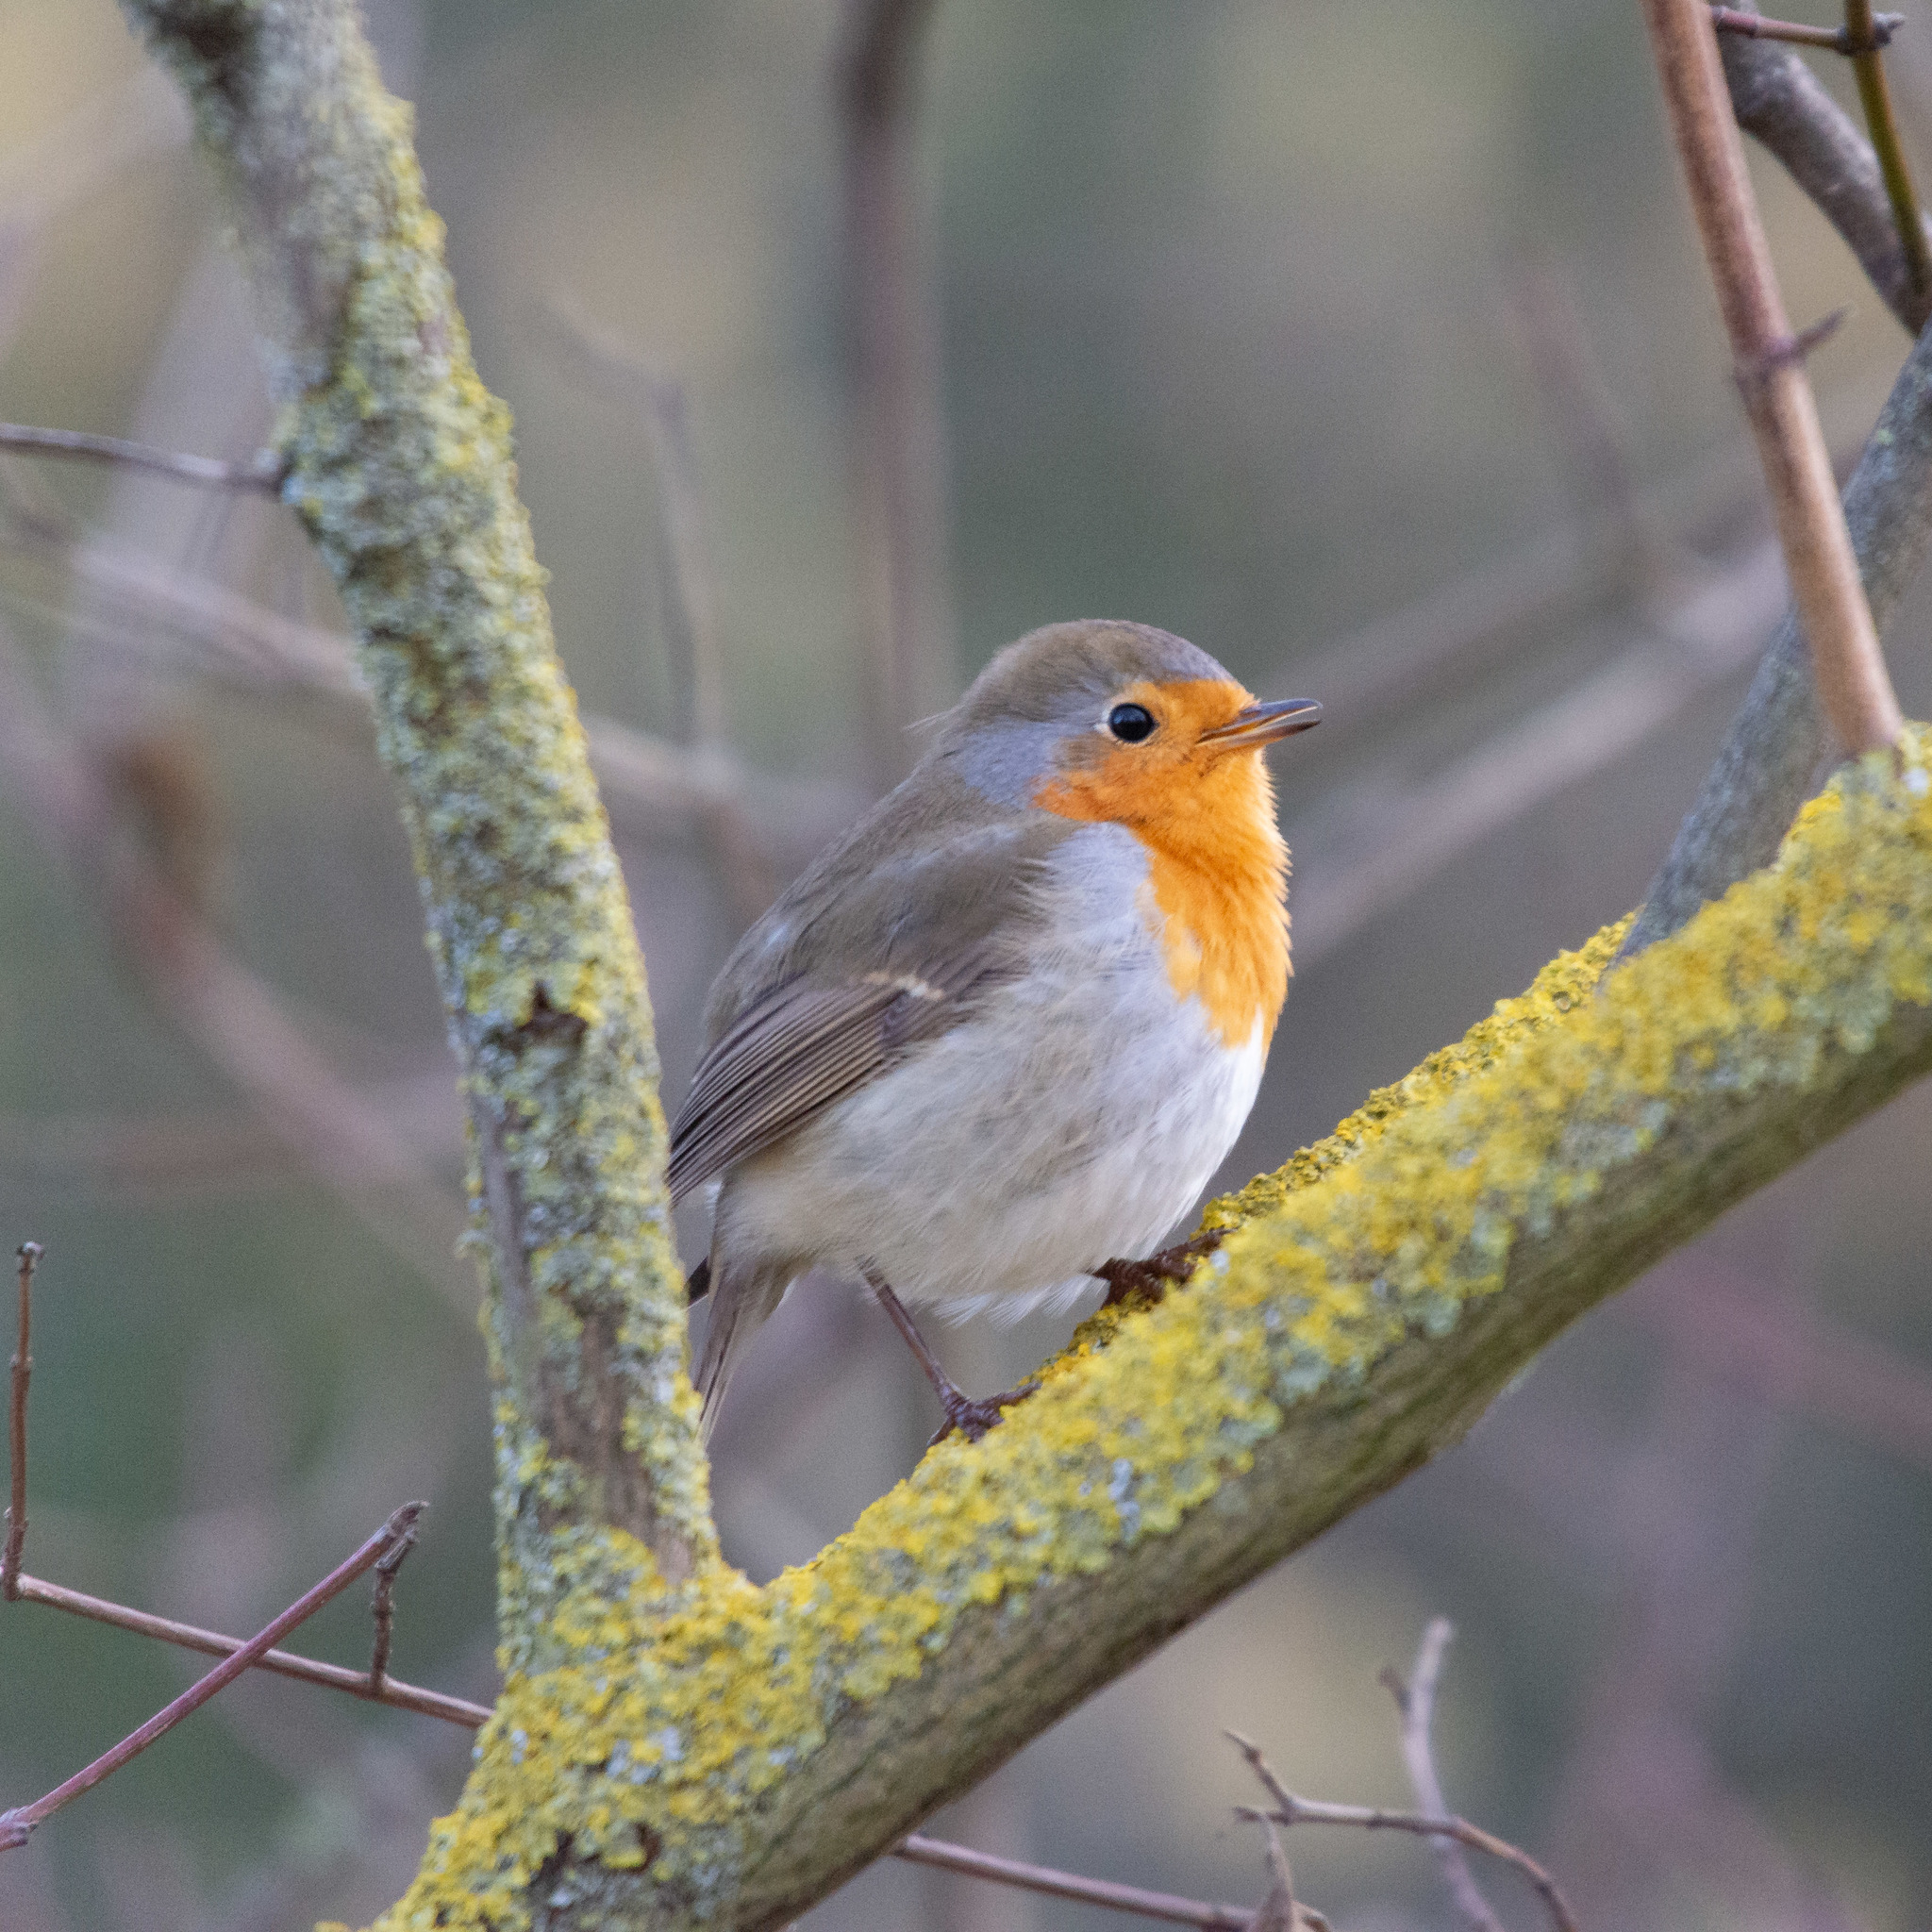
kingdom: Animalia
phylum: Chordata
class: Aves
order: Passeriformes
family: Muscicapidae
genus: Erithacus
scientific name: Erithacus rubecula
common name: European robin
